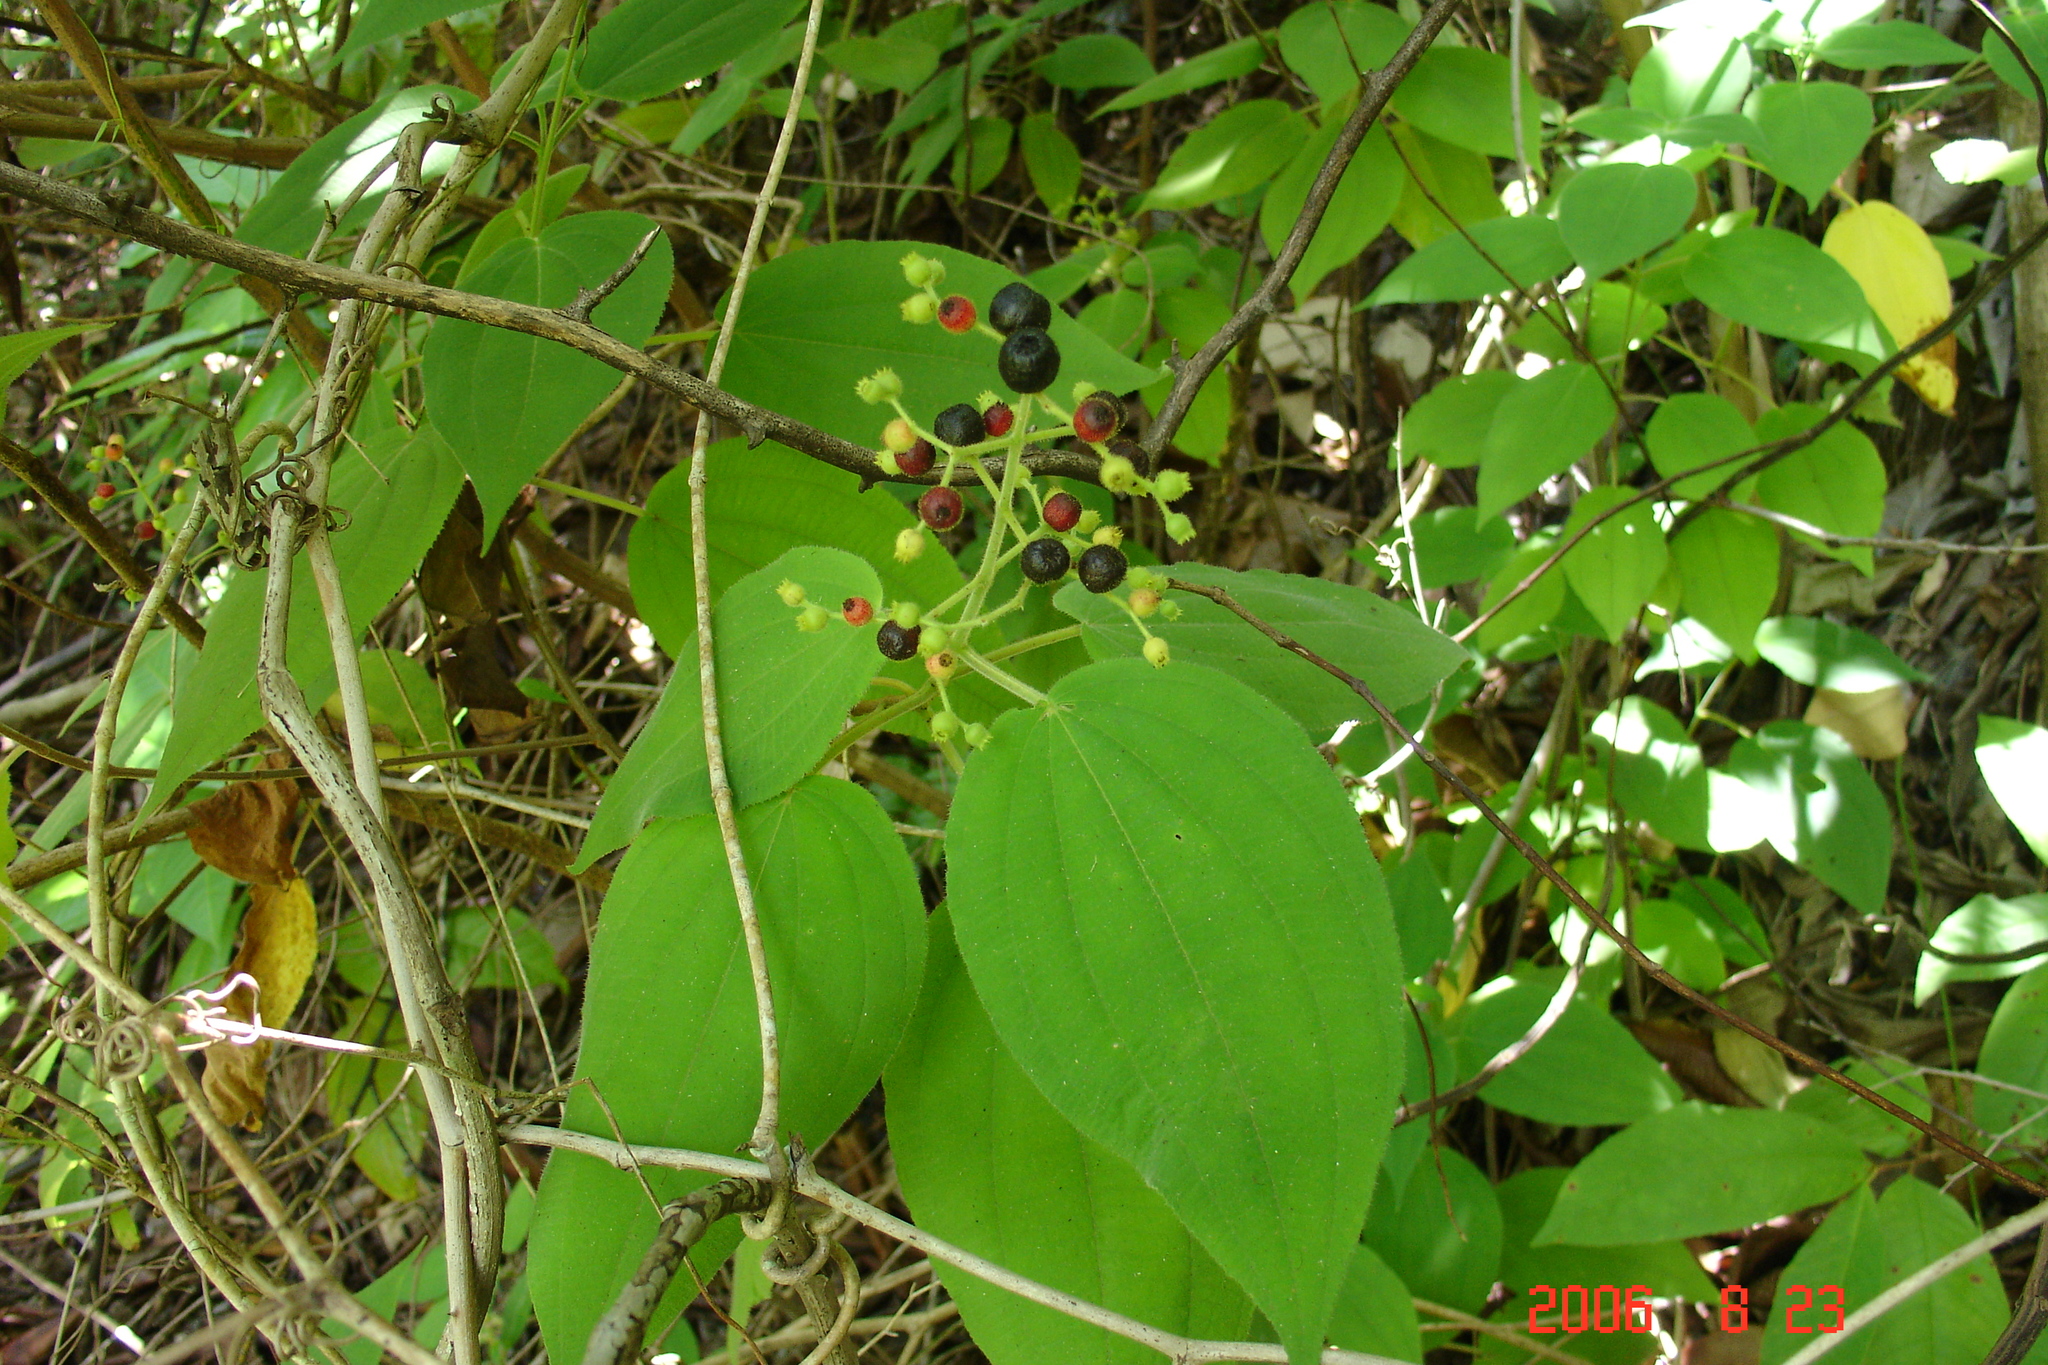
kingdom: Plantae
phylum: Tracheophyta
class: Magnoliopsida
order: Myrtales
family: Melastomataceae
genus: Miconia
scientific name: Miconia secunmexicana
